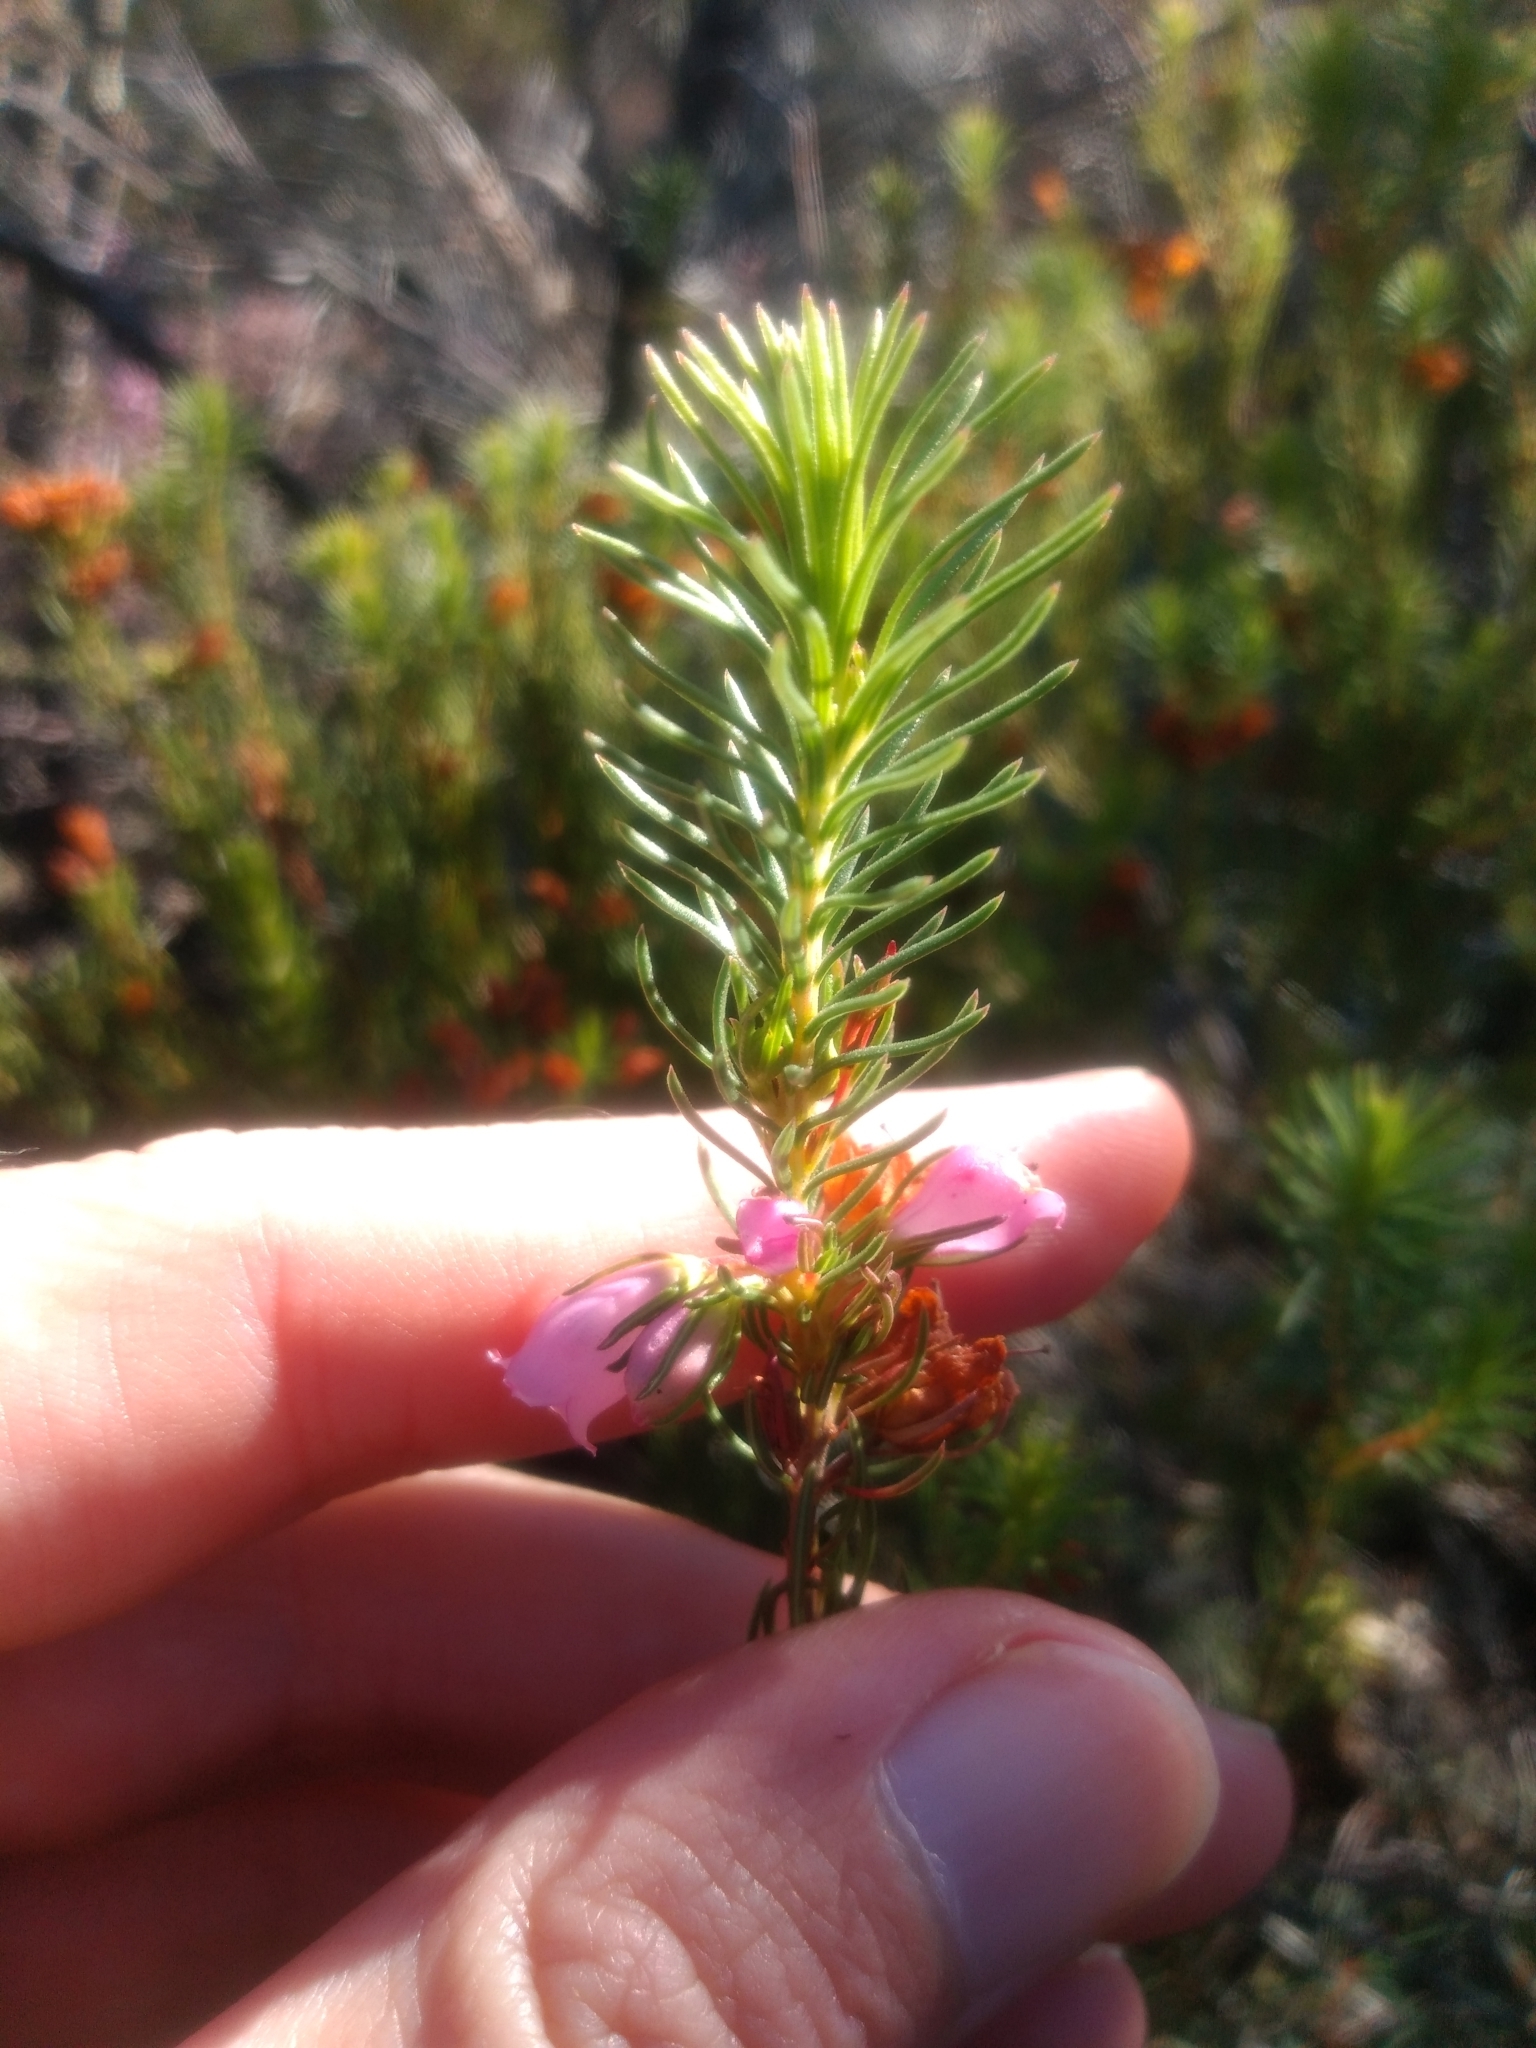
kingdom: Plantae
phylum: Tracheophyta
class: Magnoliopsida
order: Ericales
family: Ericaceae
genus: Erica
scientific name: Erica viscaria
